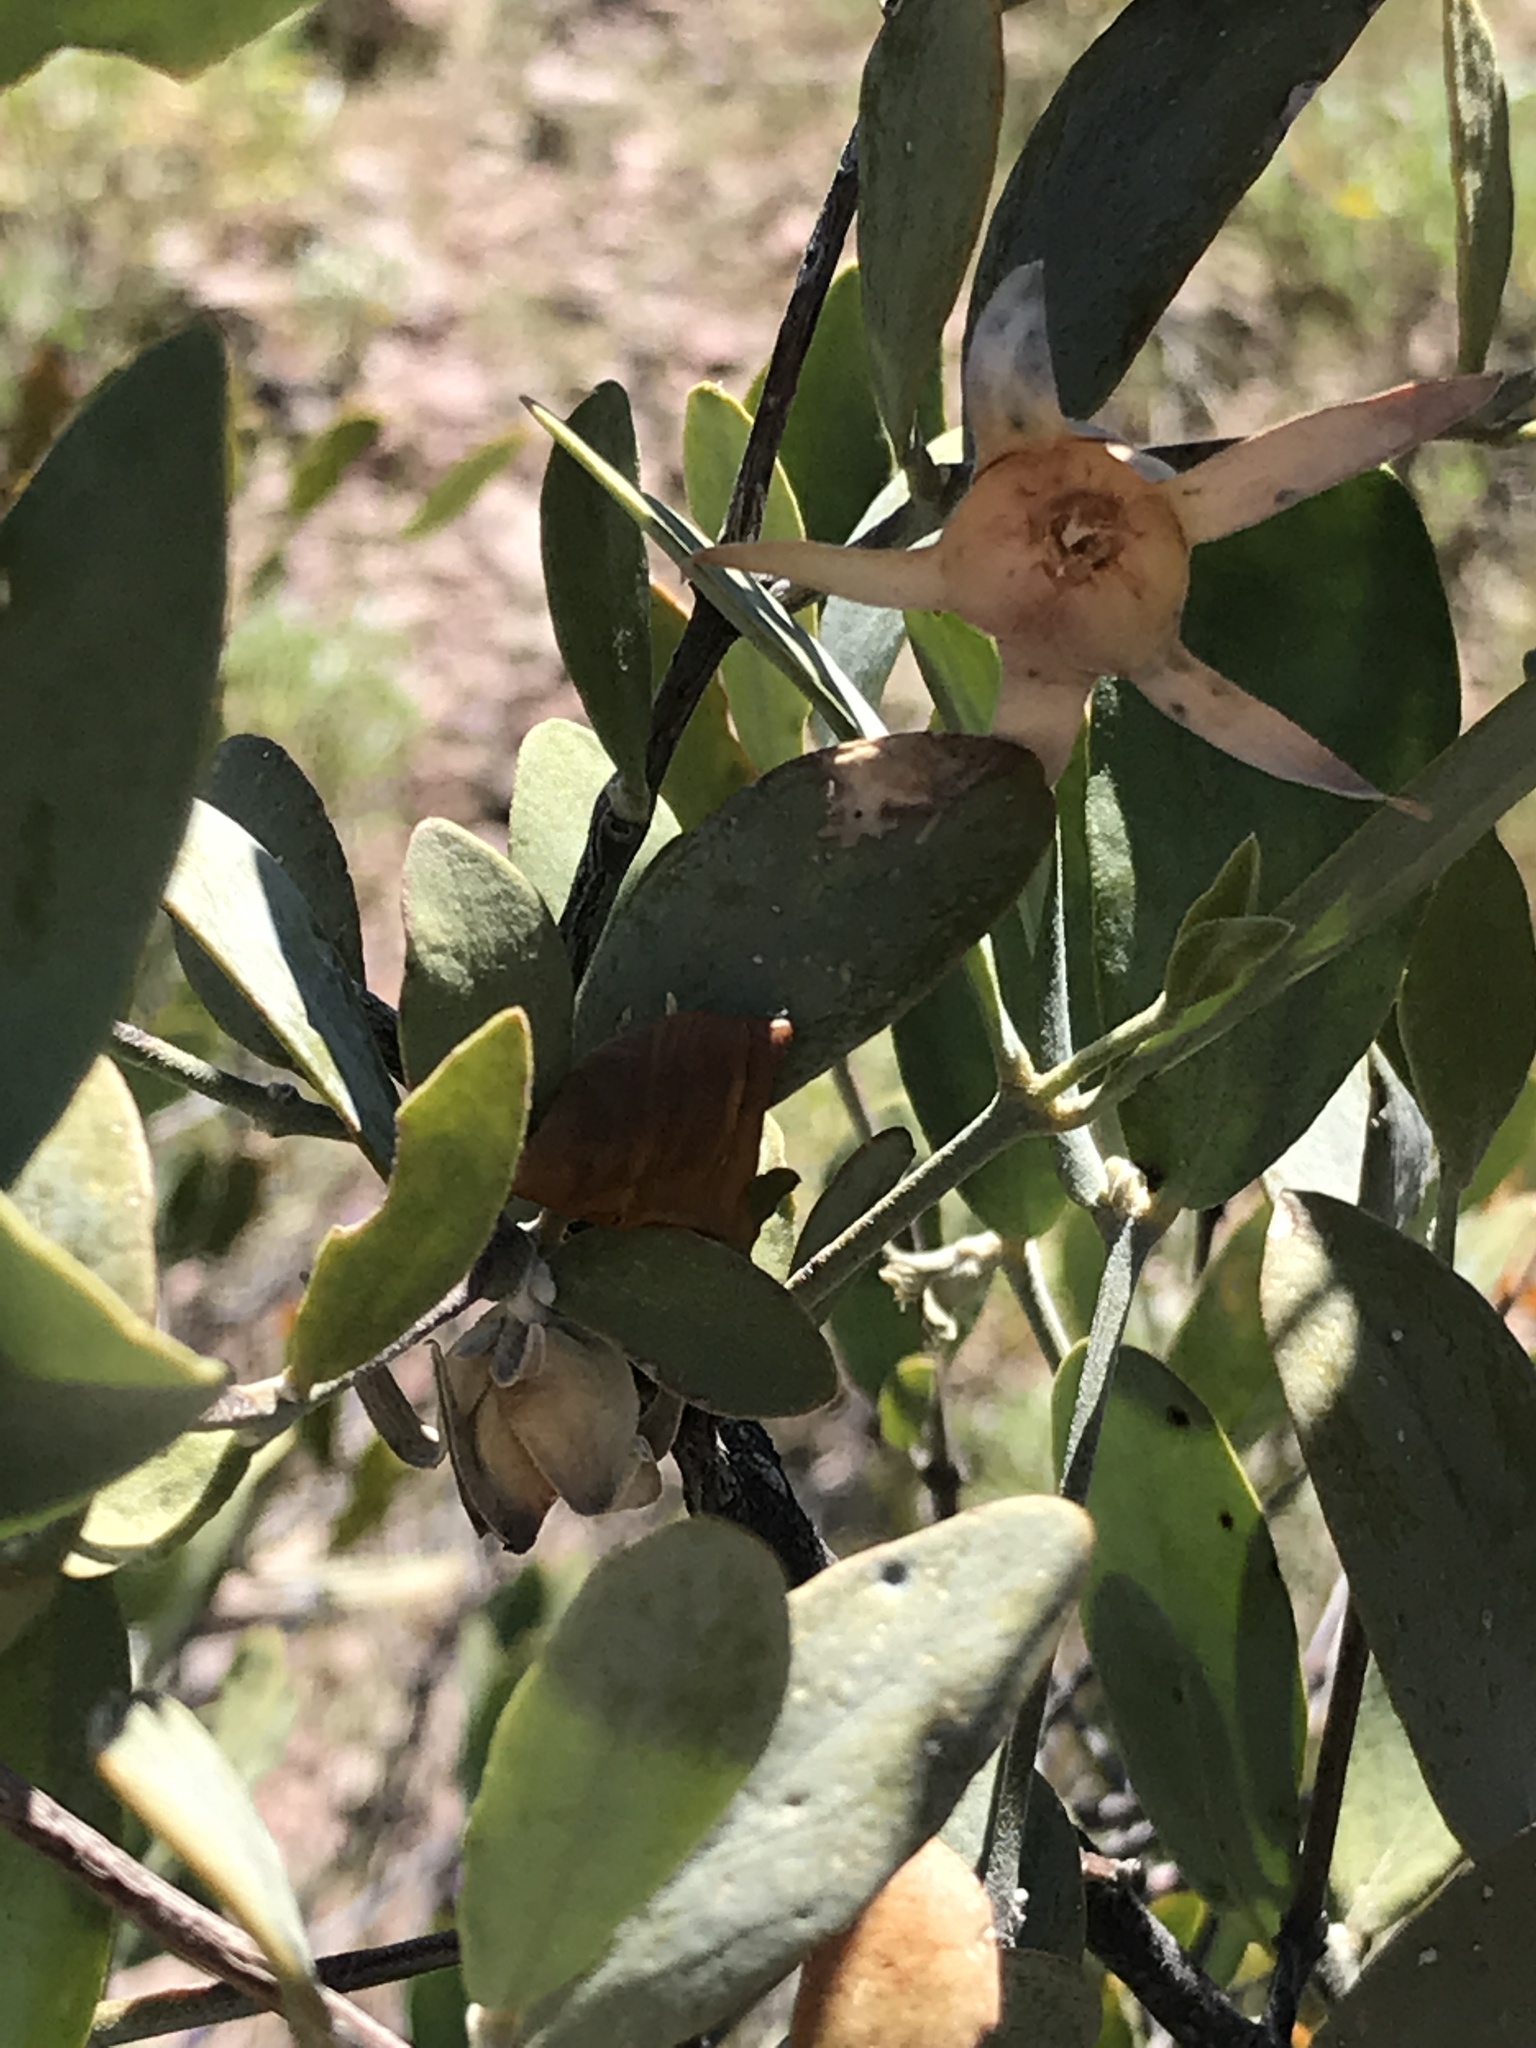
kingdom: Plantae
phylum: Tracheophyta
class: Magnoliopsida
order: Caryophyllales
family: Simmondsiaceae
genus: Simmondsia
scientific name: Simmondsia chinensis
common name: Jojoba
